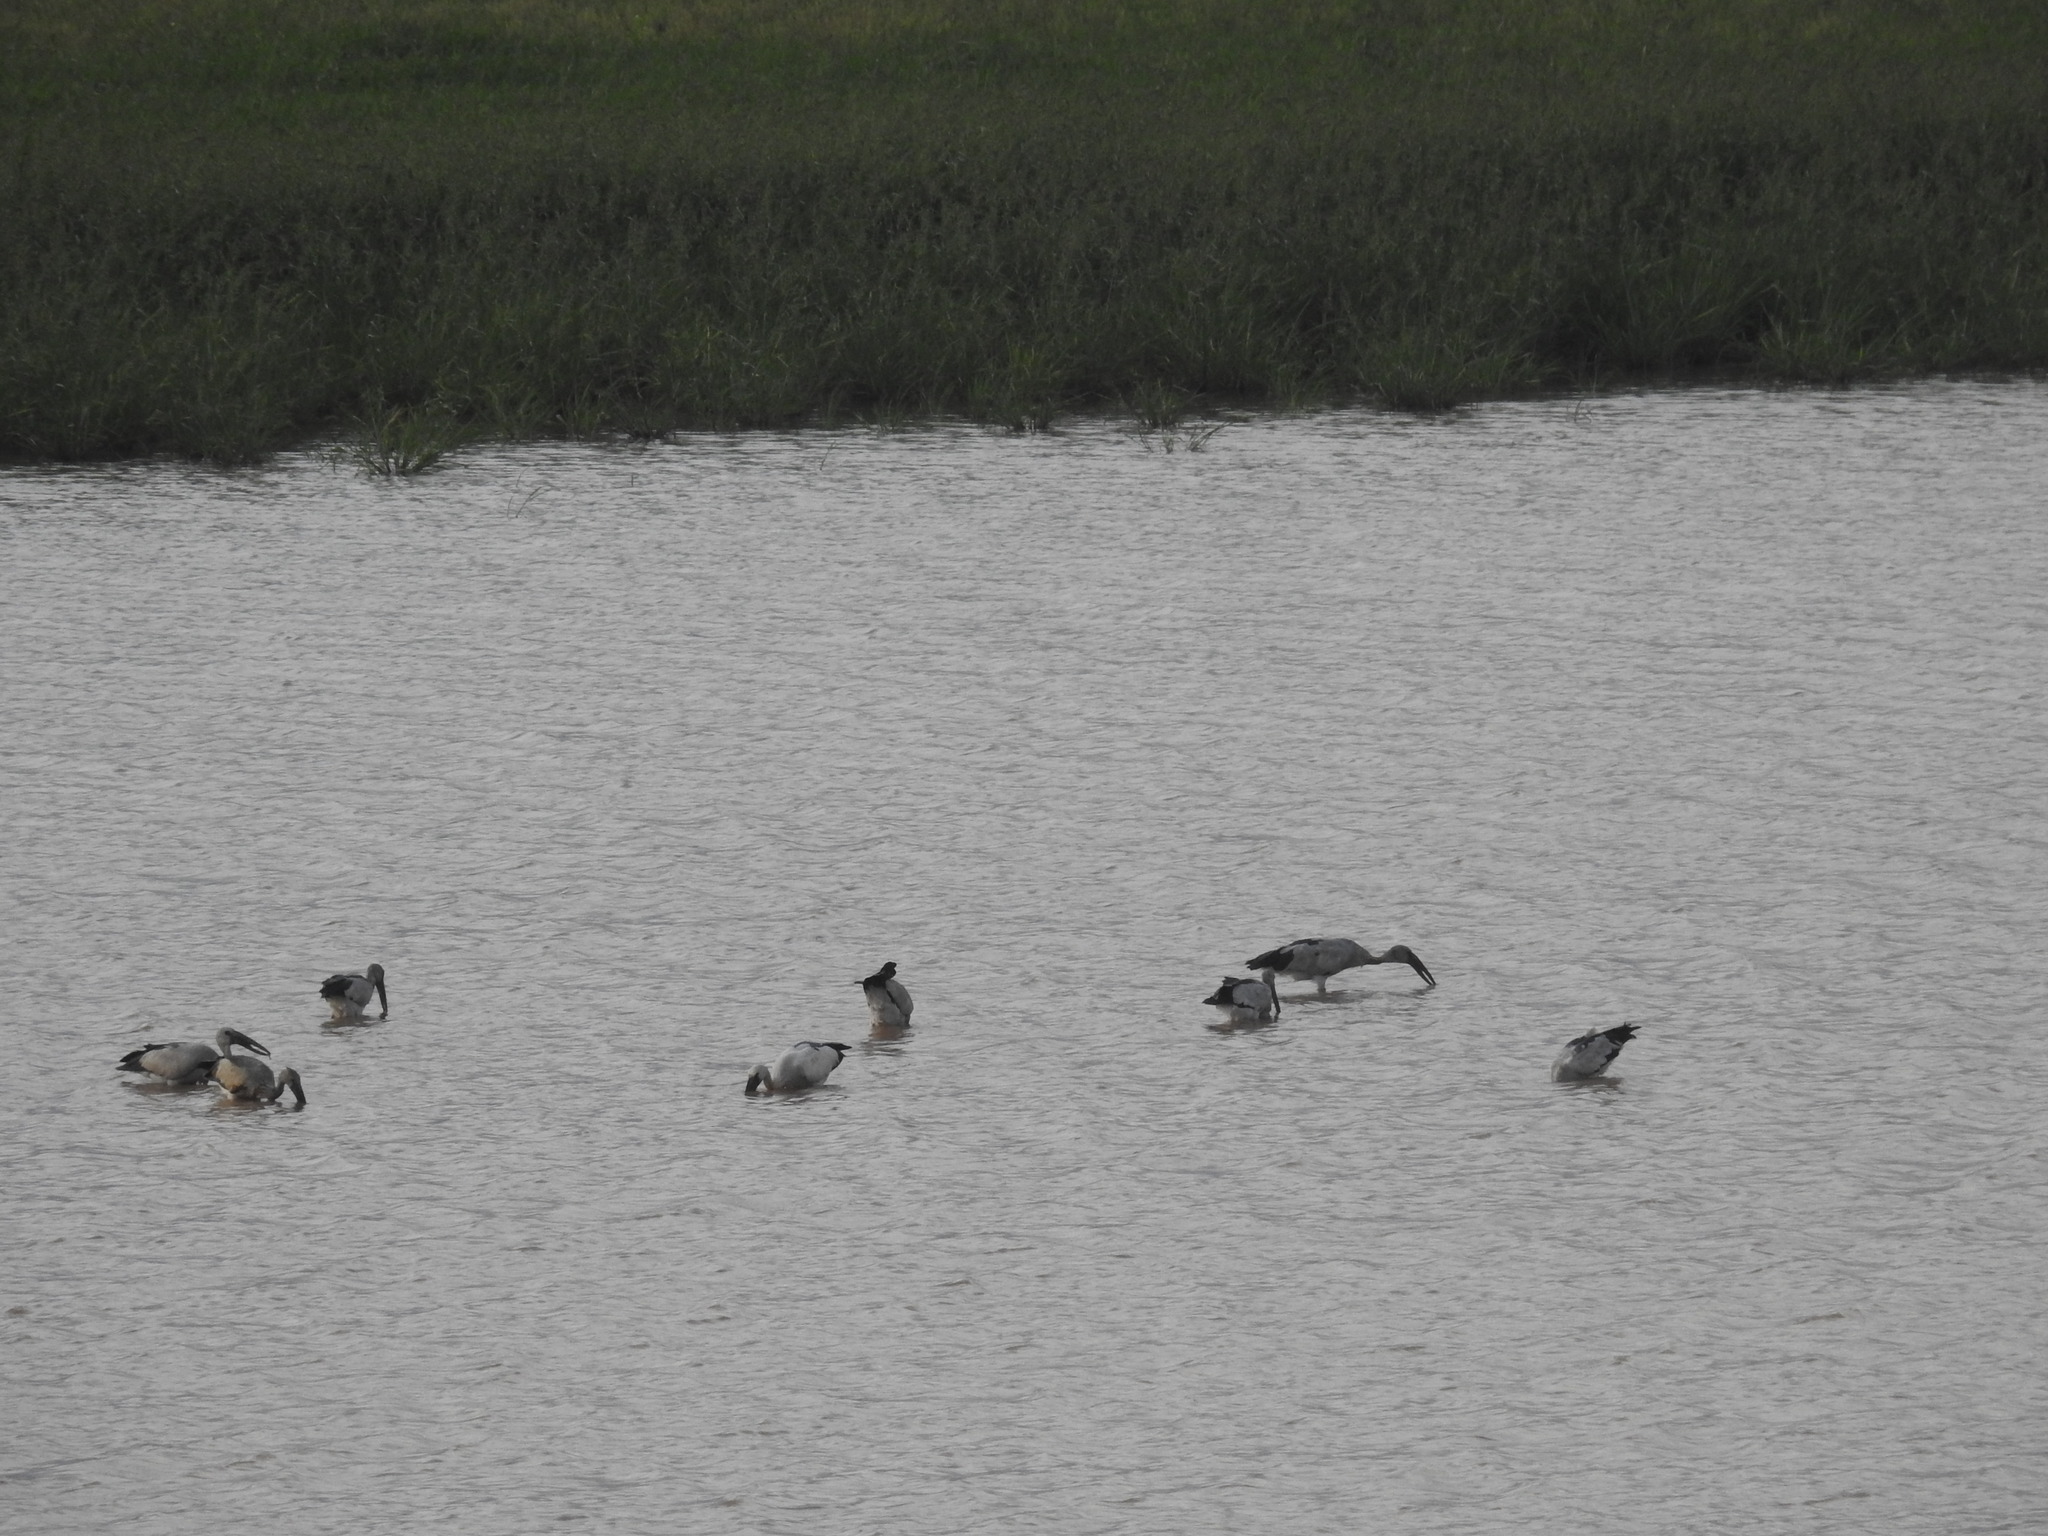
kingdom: Animalia
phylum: Chordata
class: Aves
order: Ciconiiformes
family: Ciconiidae
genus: Anastomus
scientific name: Anastomus oscitans
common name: Asian openbill
